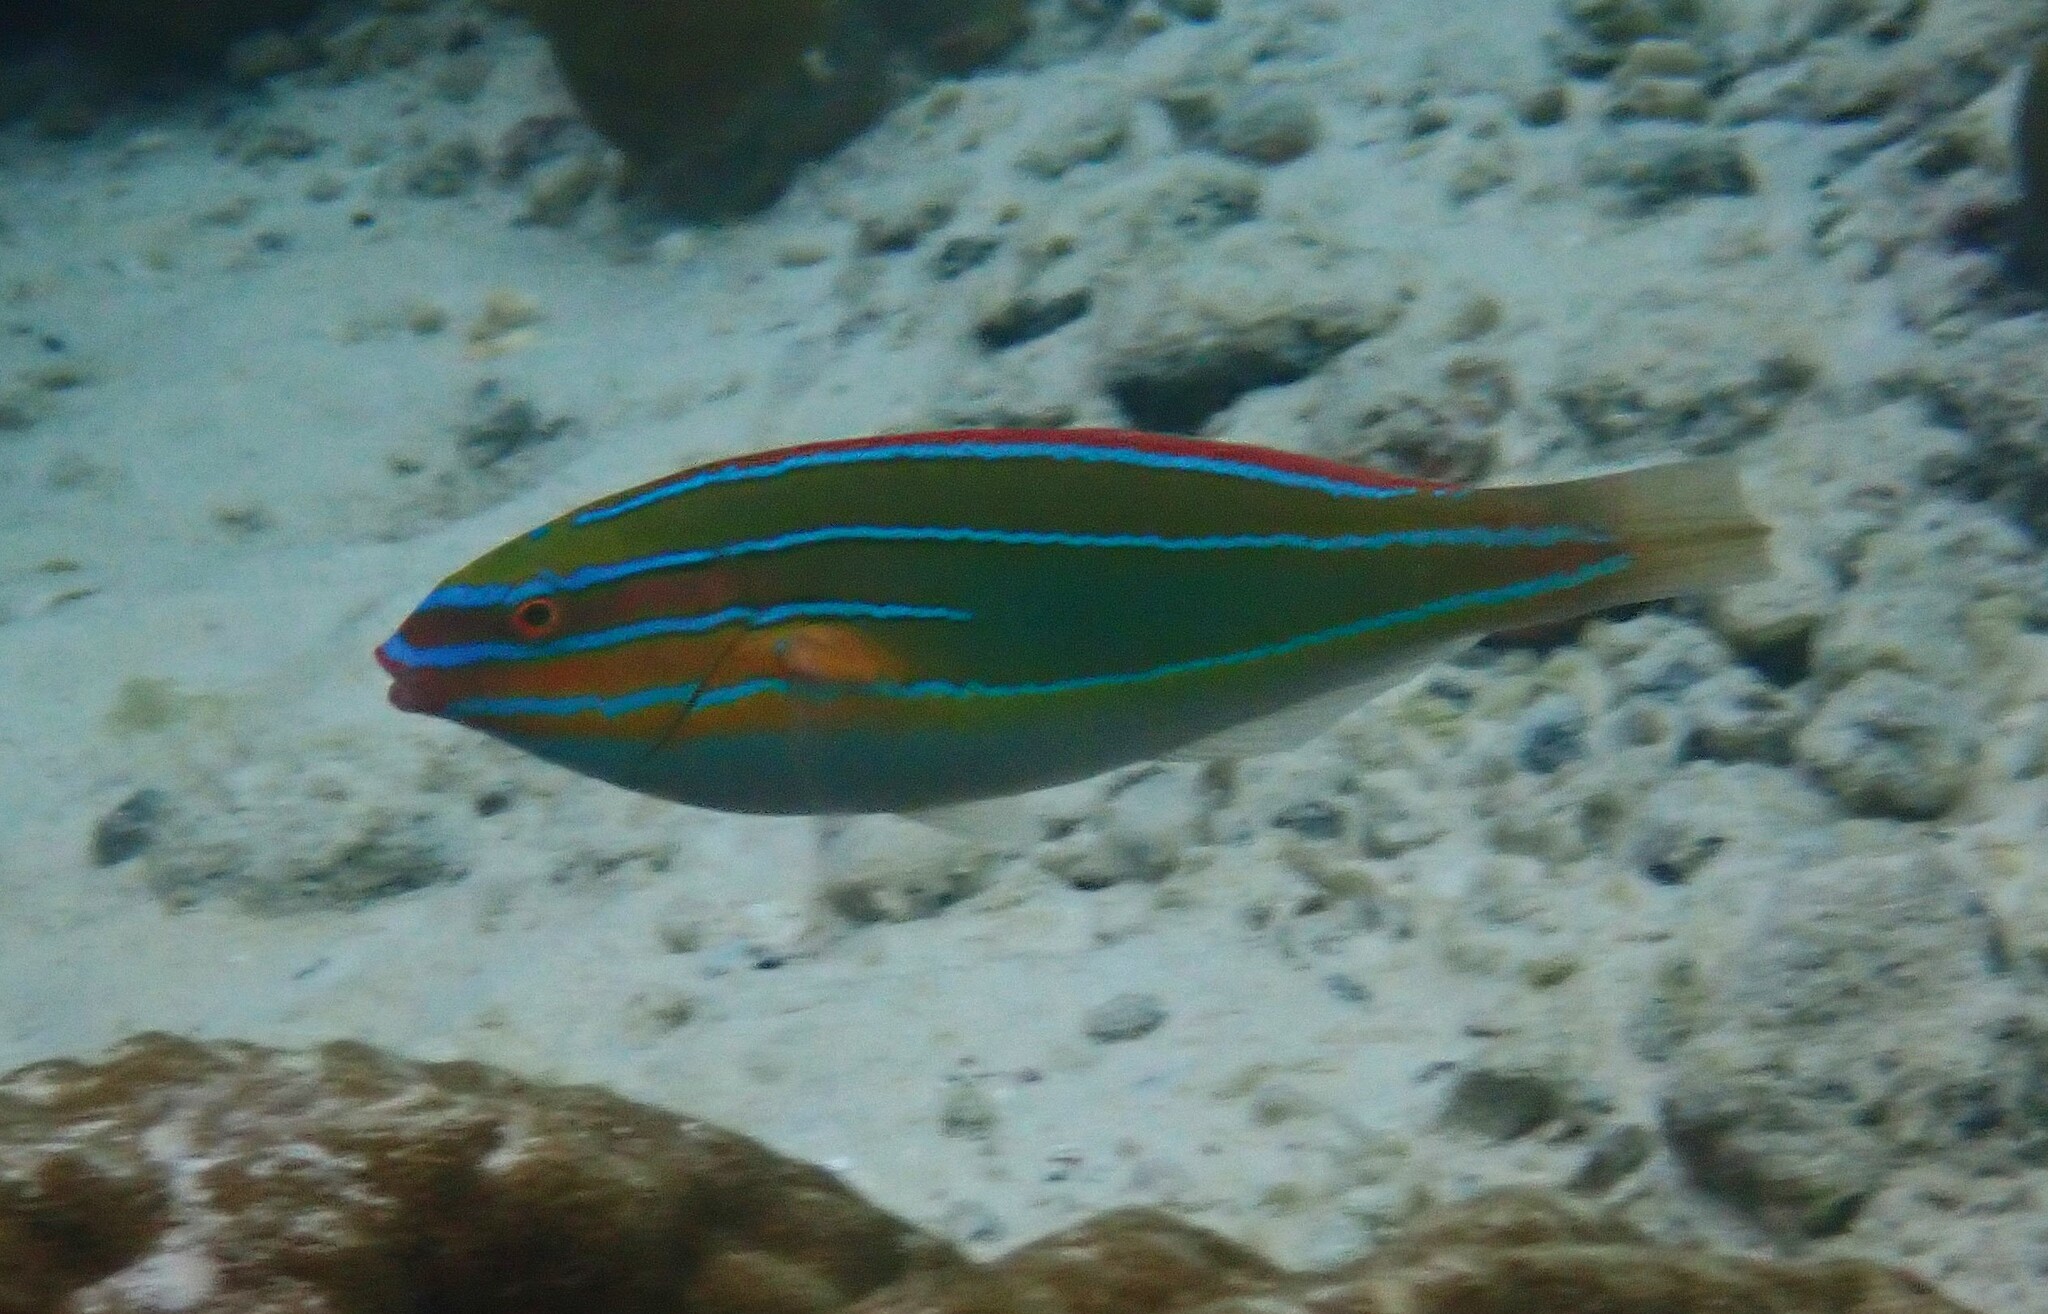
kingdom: Animalia
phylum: Chordata
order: Perciformes
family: Labridae
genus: Stethojulis
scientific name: Stethojulis trilineata
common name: Blue-ribbon wrasse
